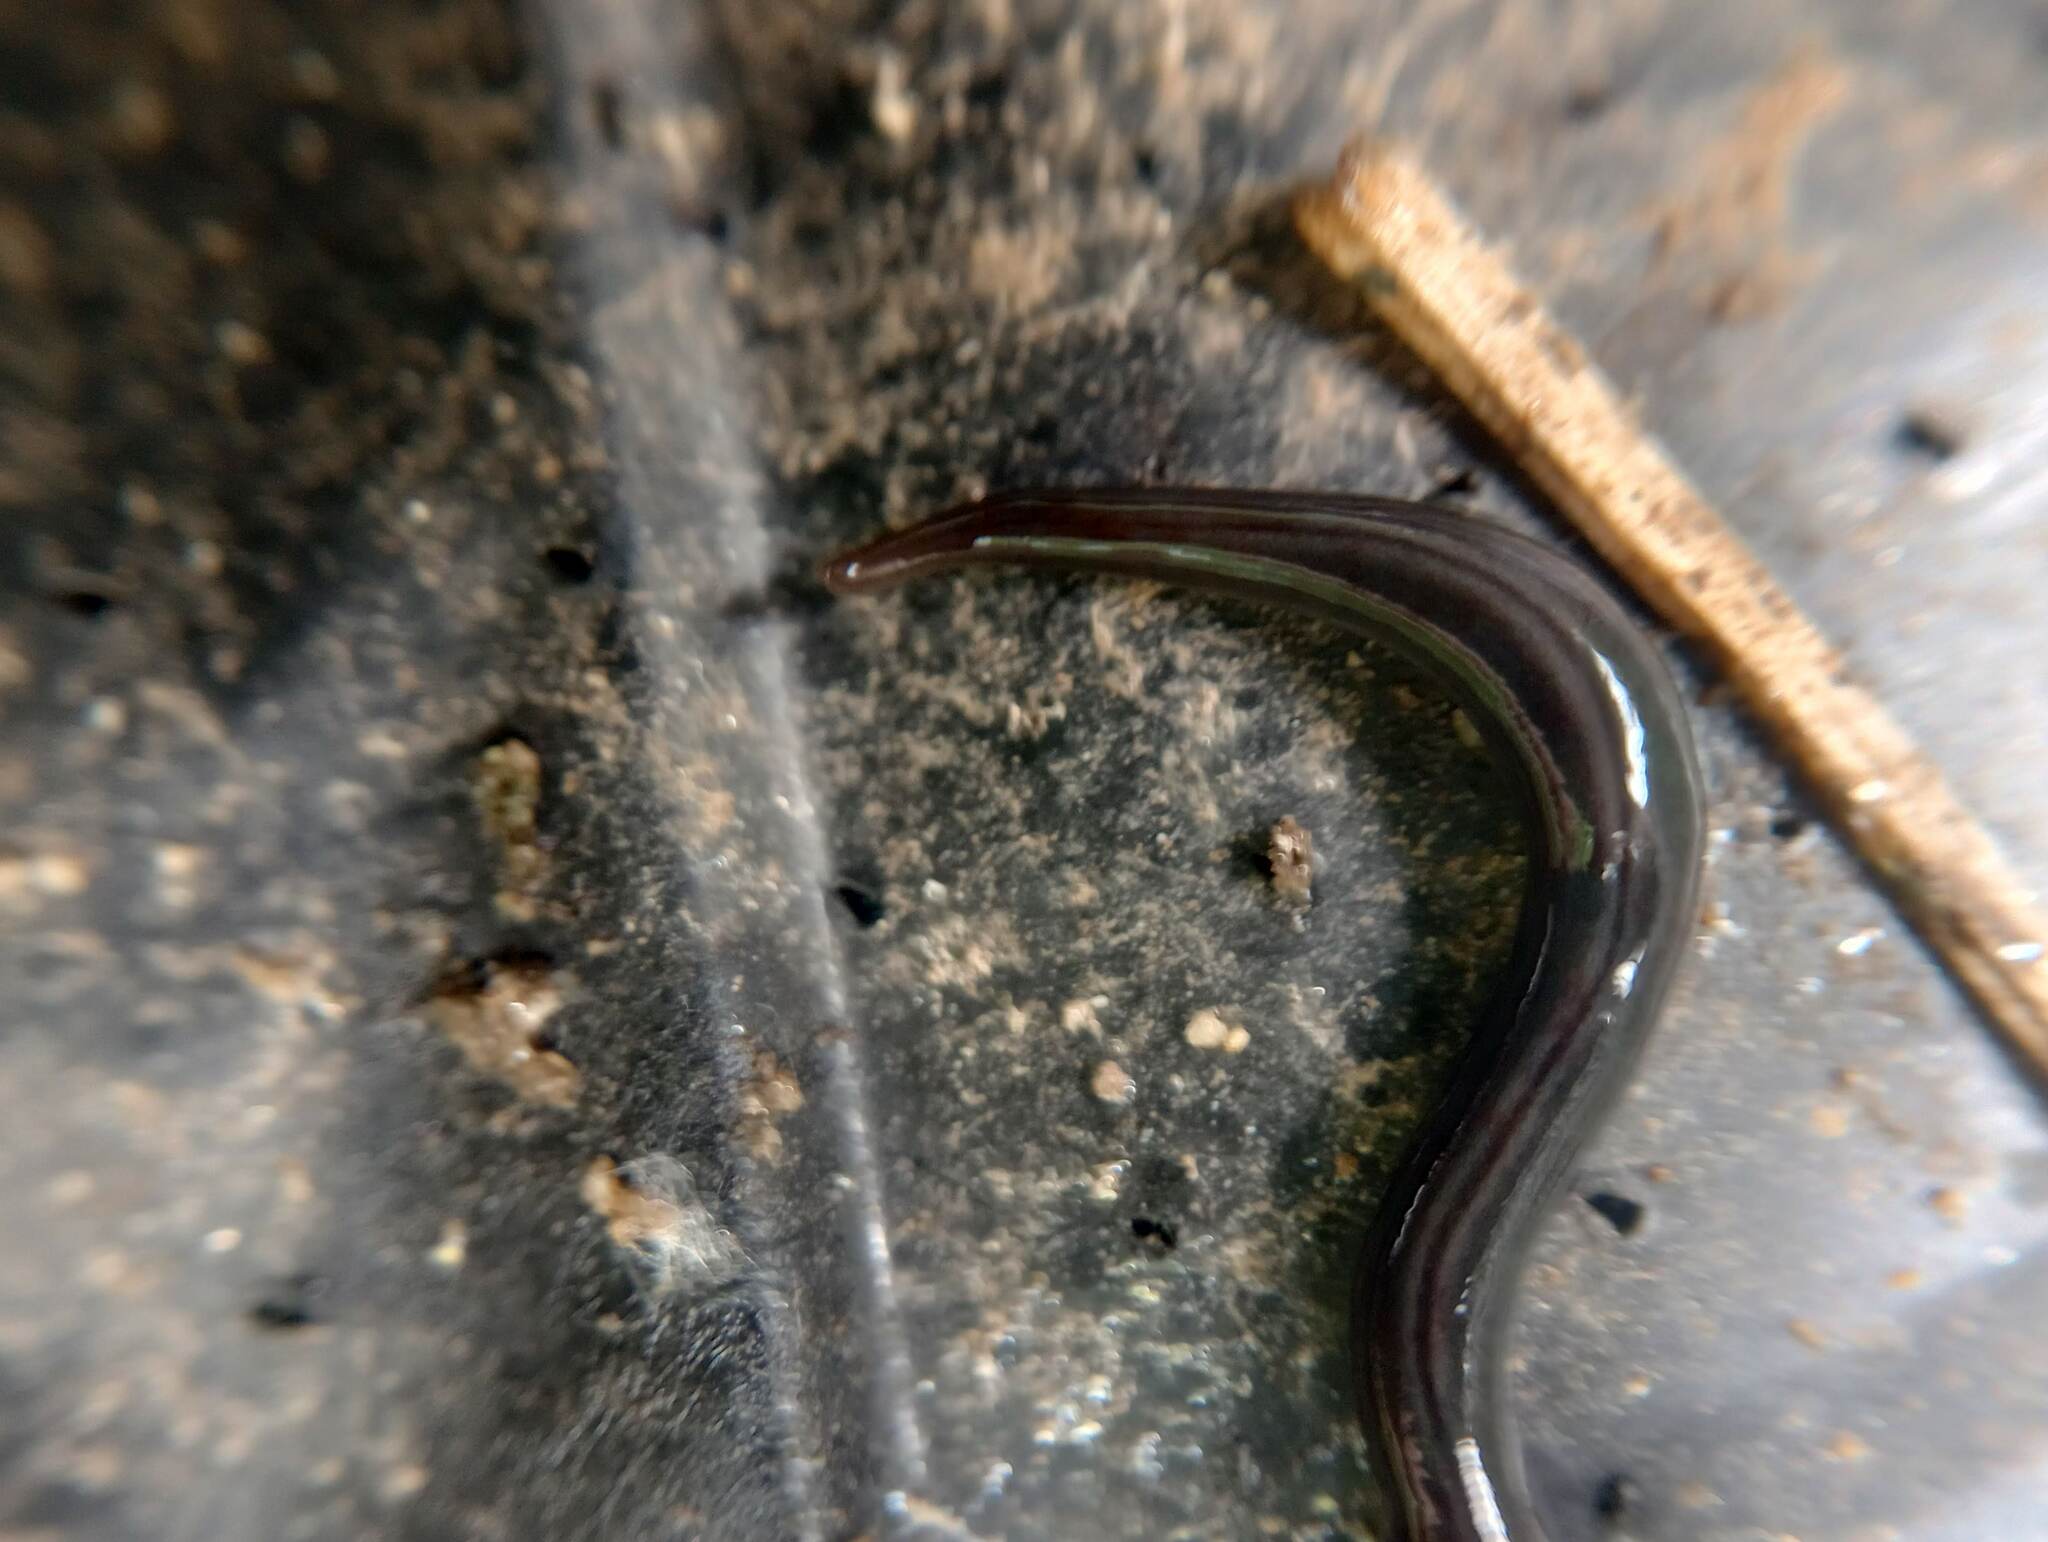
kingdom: Animalia
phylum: Platyhelminthes
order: Tricladida
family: Geoplanidae
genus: Parakontikia
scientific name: Parakontikia ventrolineata
